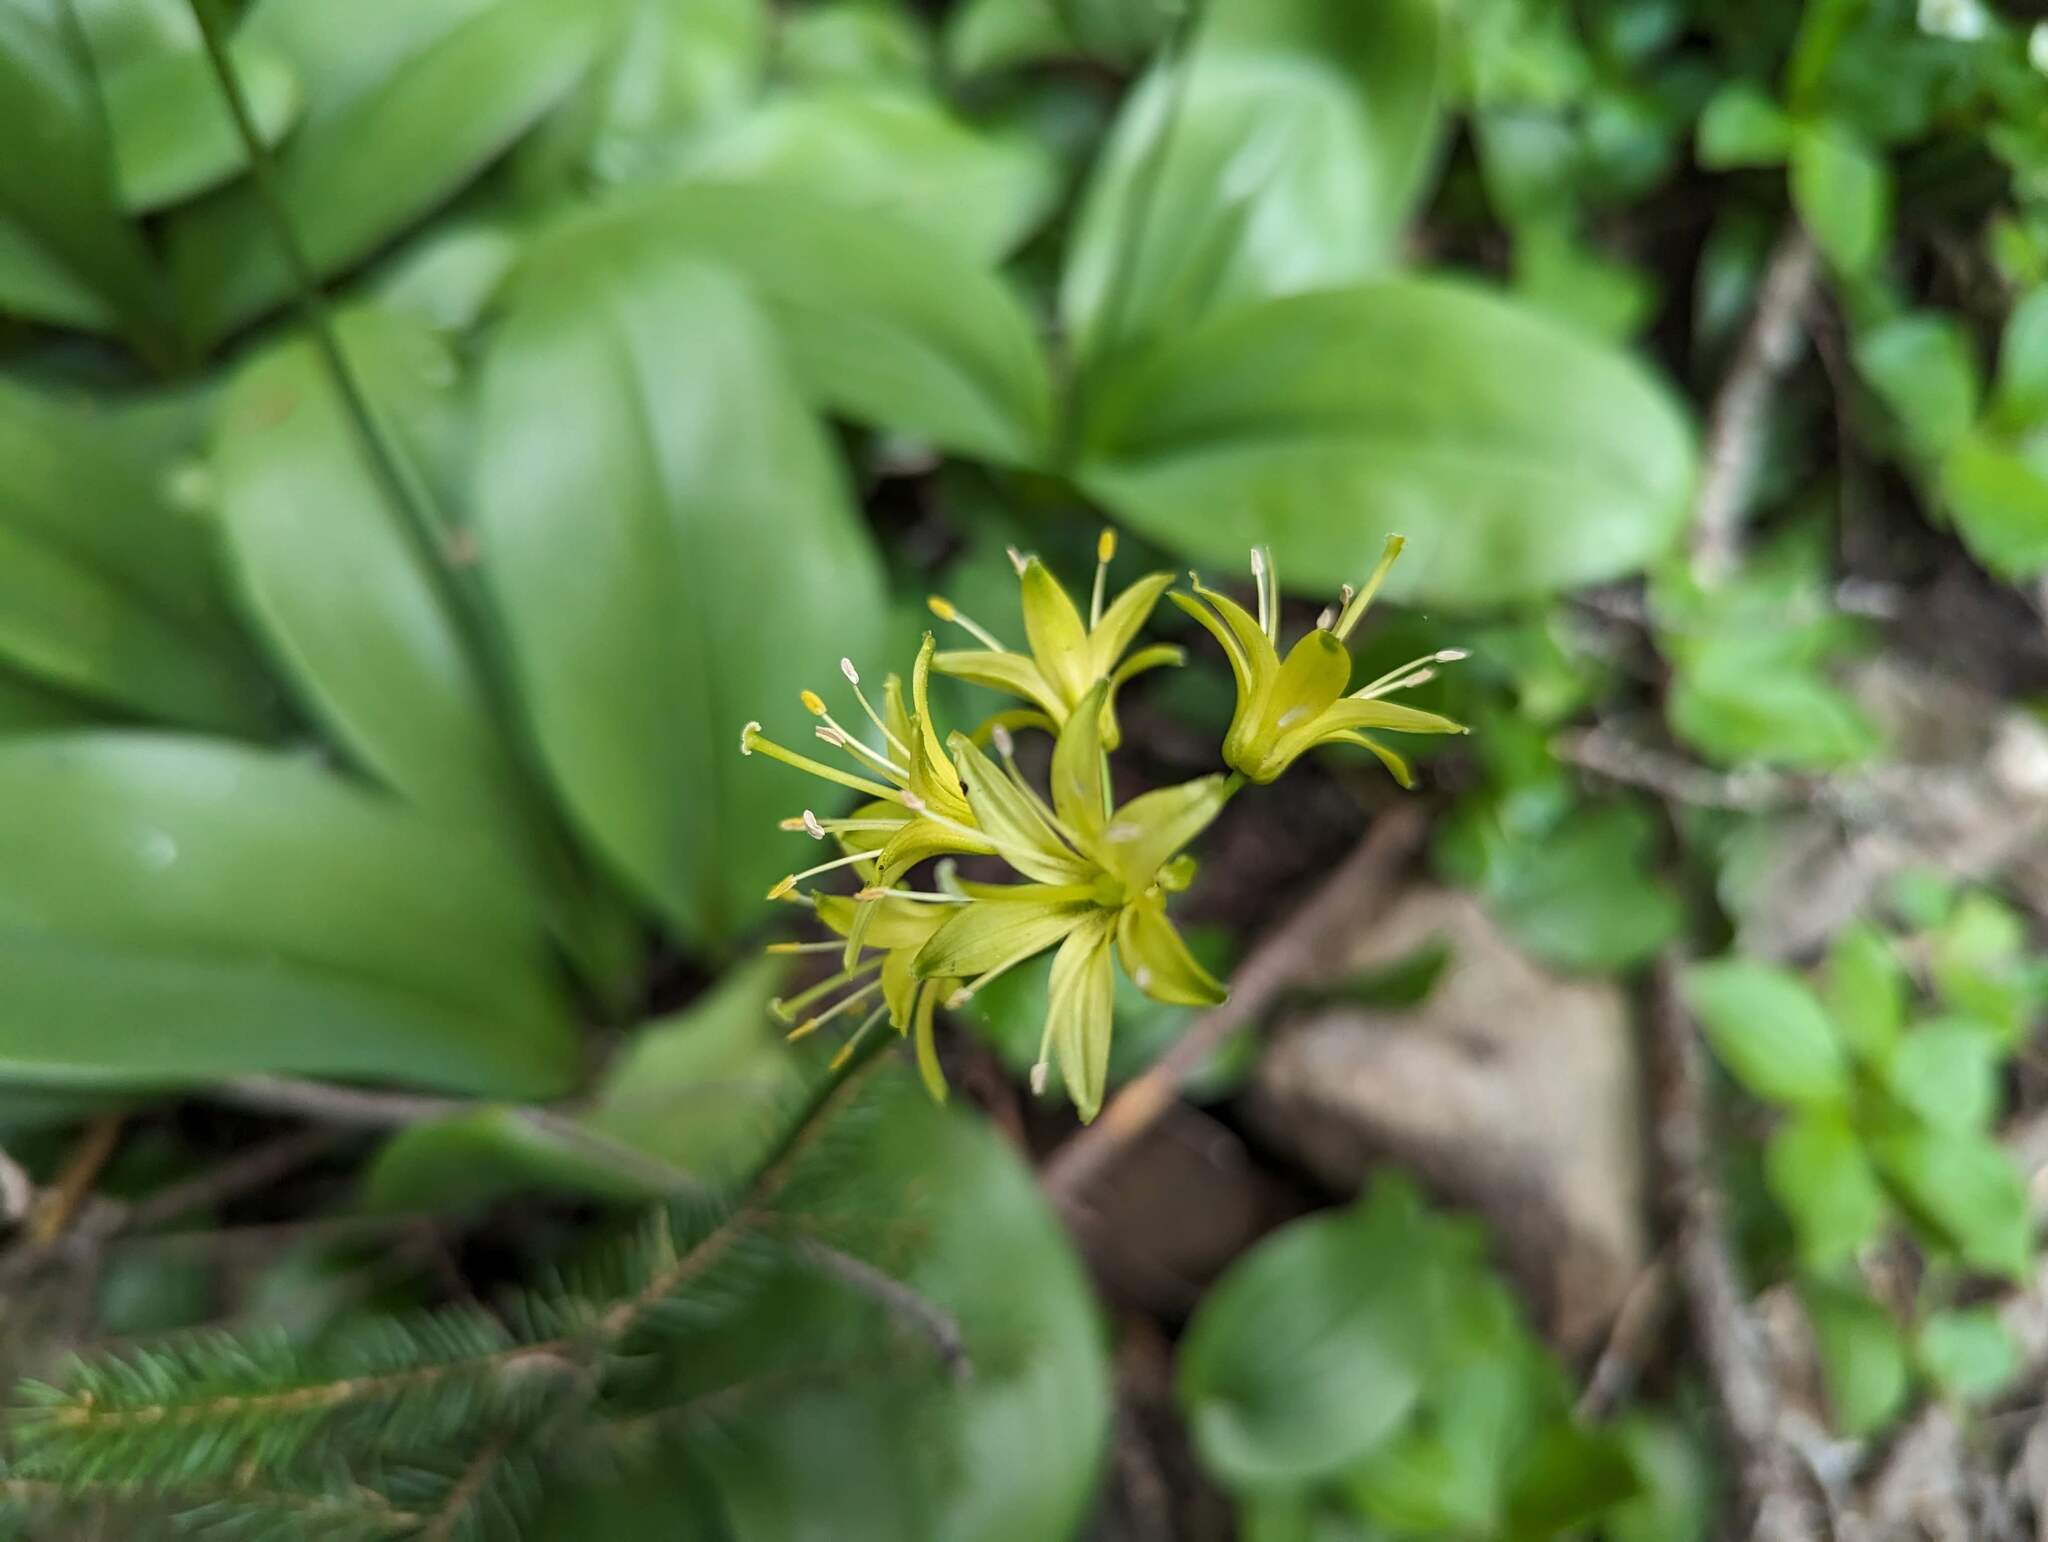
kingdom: Plantae
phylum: Tracheophyta
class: Liliopsida
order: Liliales
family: Liliaceae
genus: Clintonia
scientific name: Clintonia borealis
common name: Yellow clintonia
